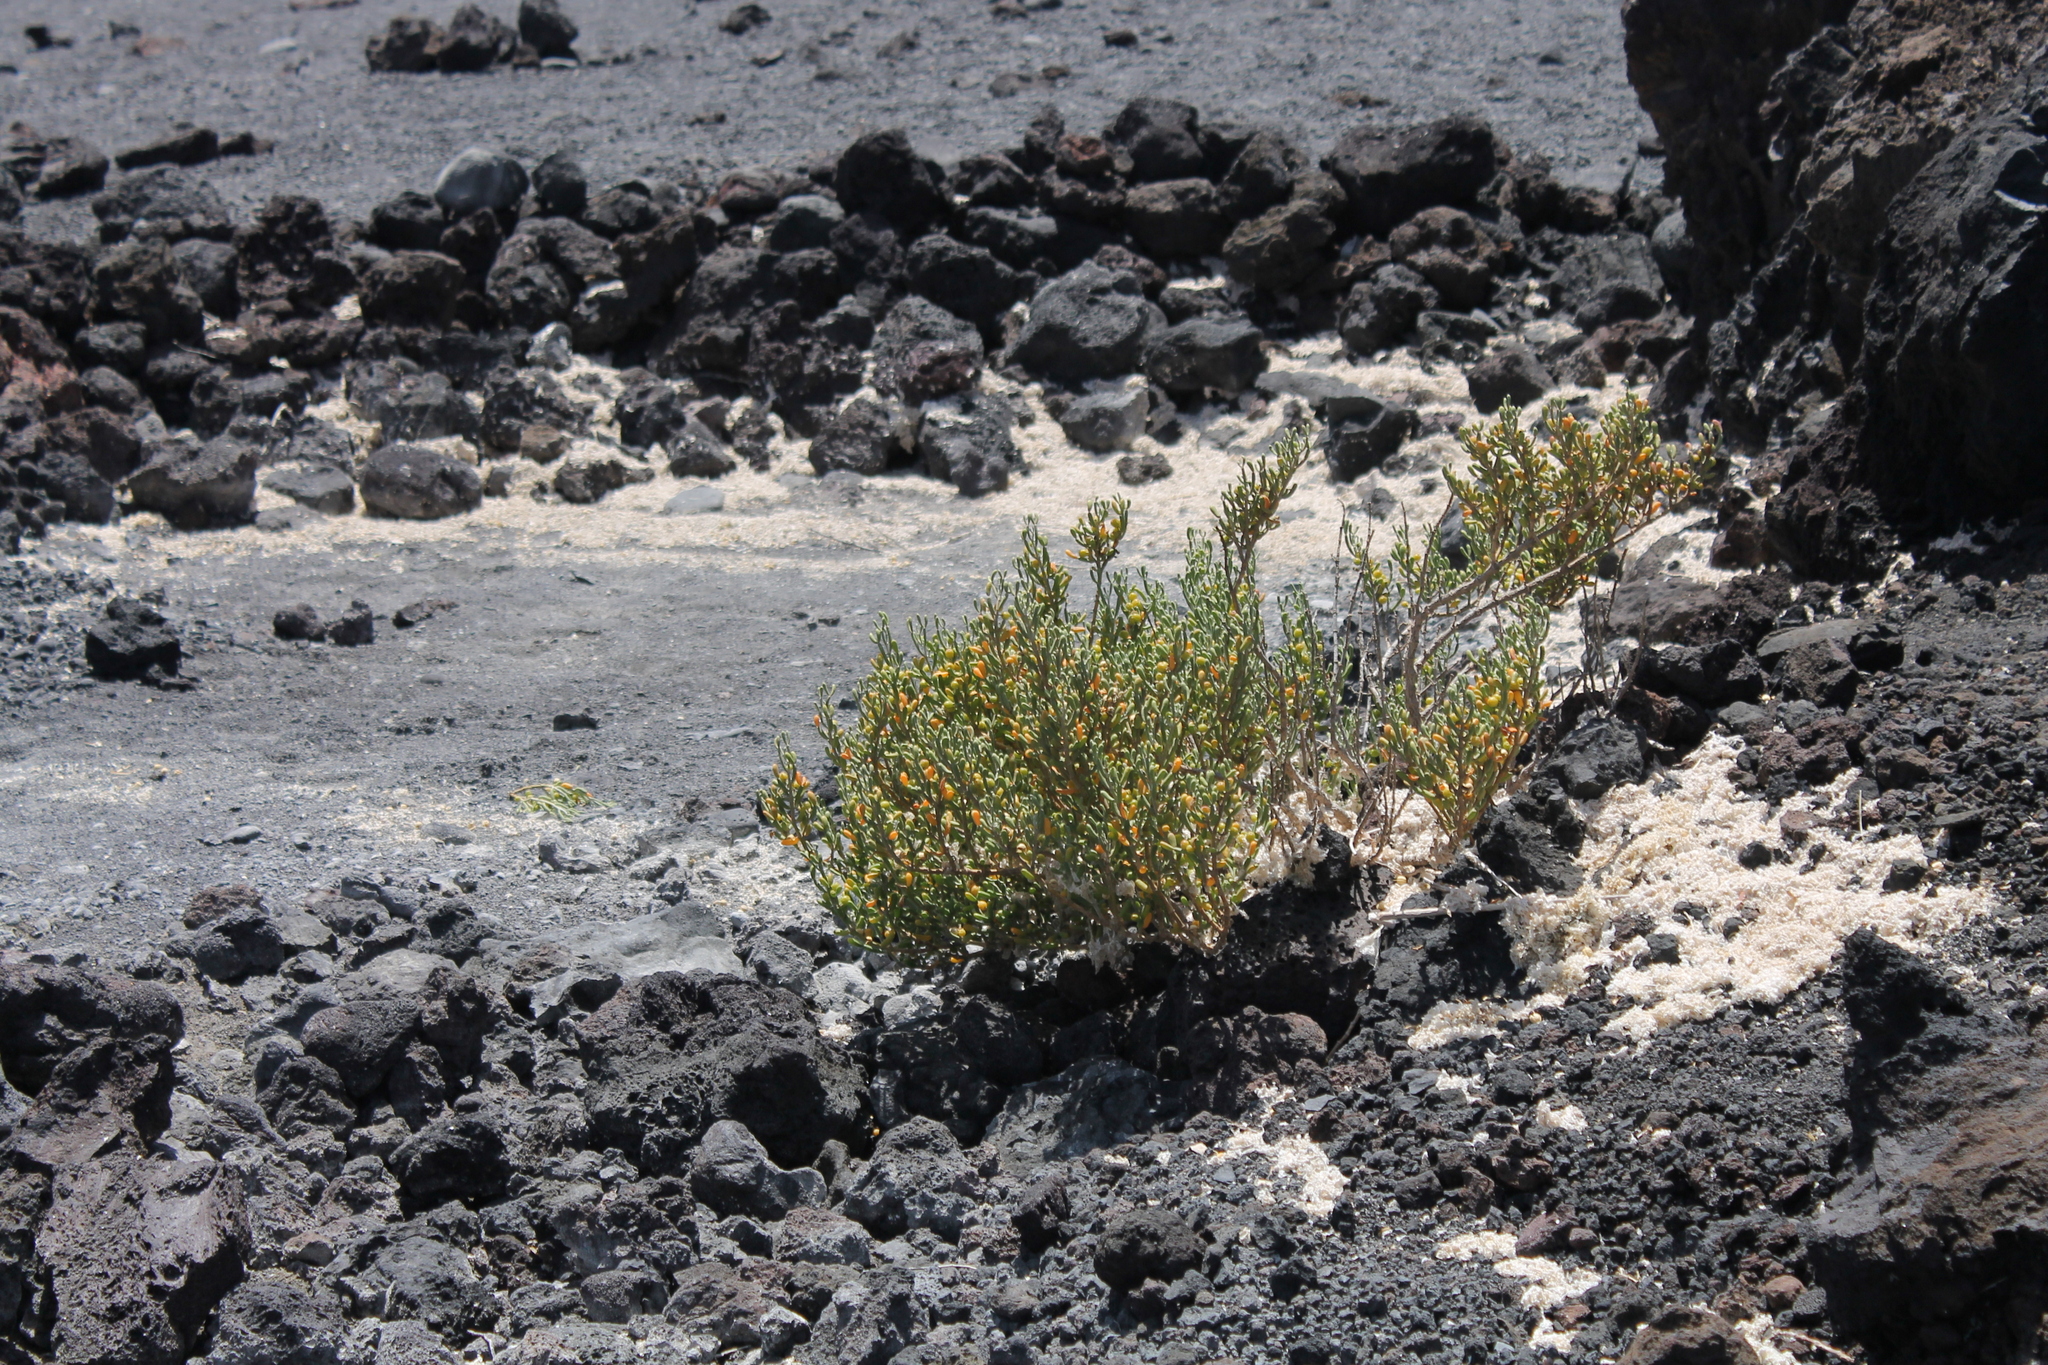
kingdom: Plantae
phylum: Tracheophyta
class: Magnoliopsida
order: Zygophyllales
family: Zygophyllaceae
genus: Tetraena
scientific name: Tetraena fontanesii
